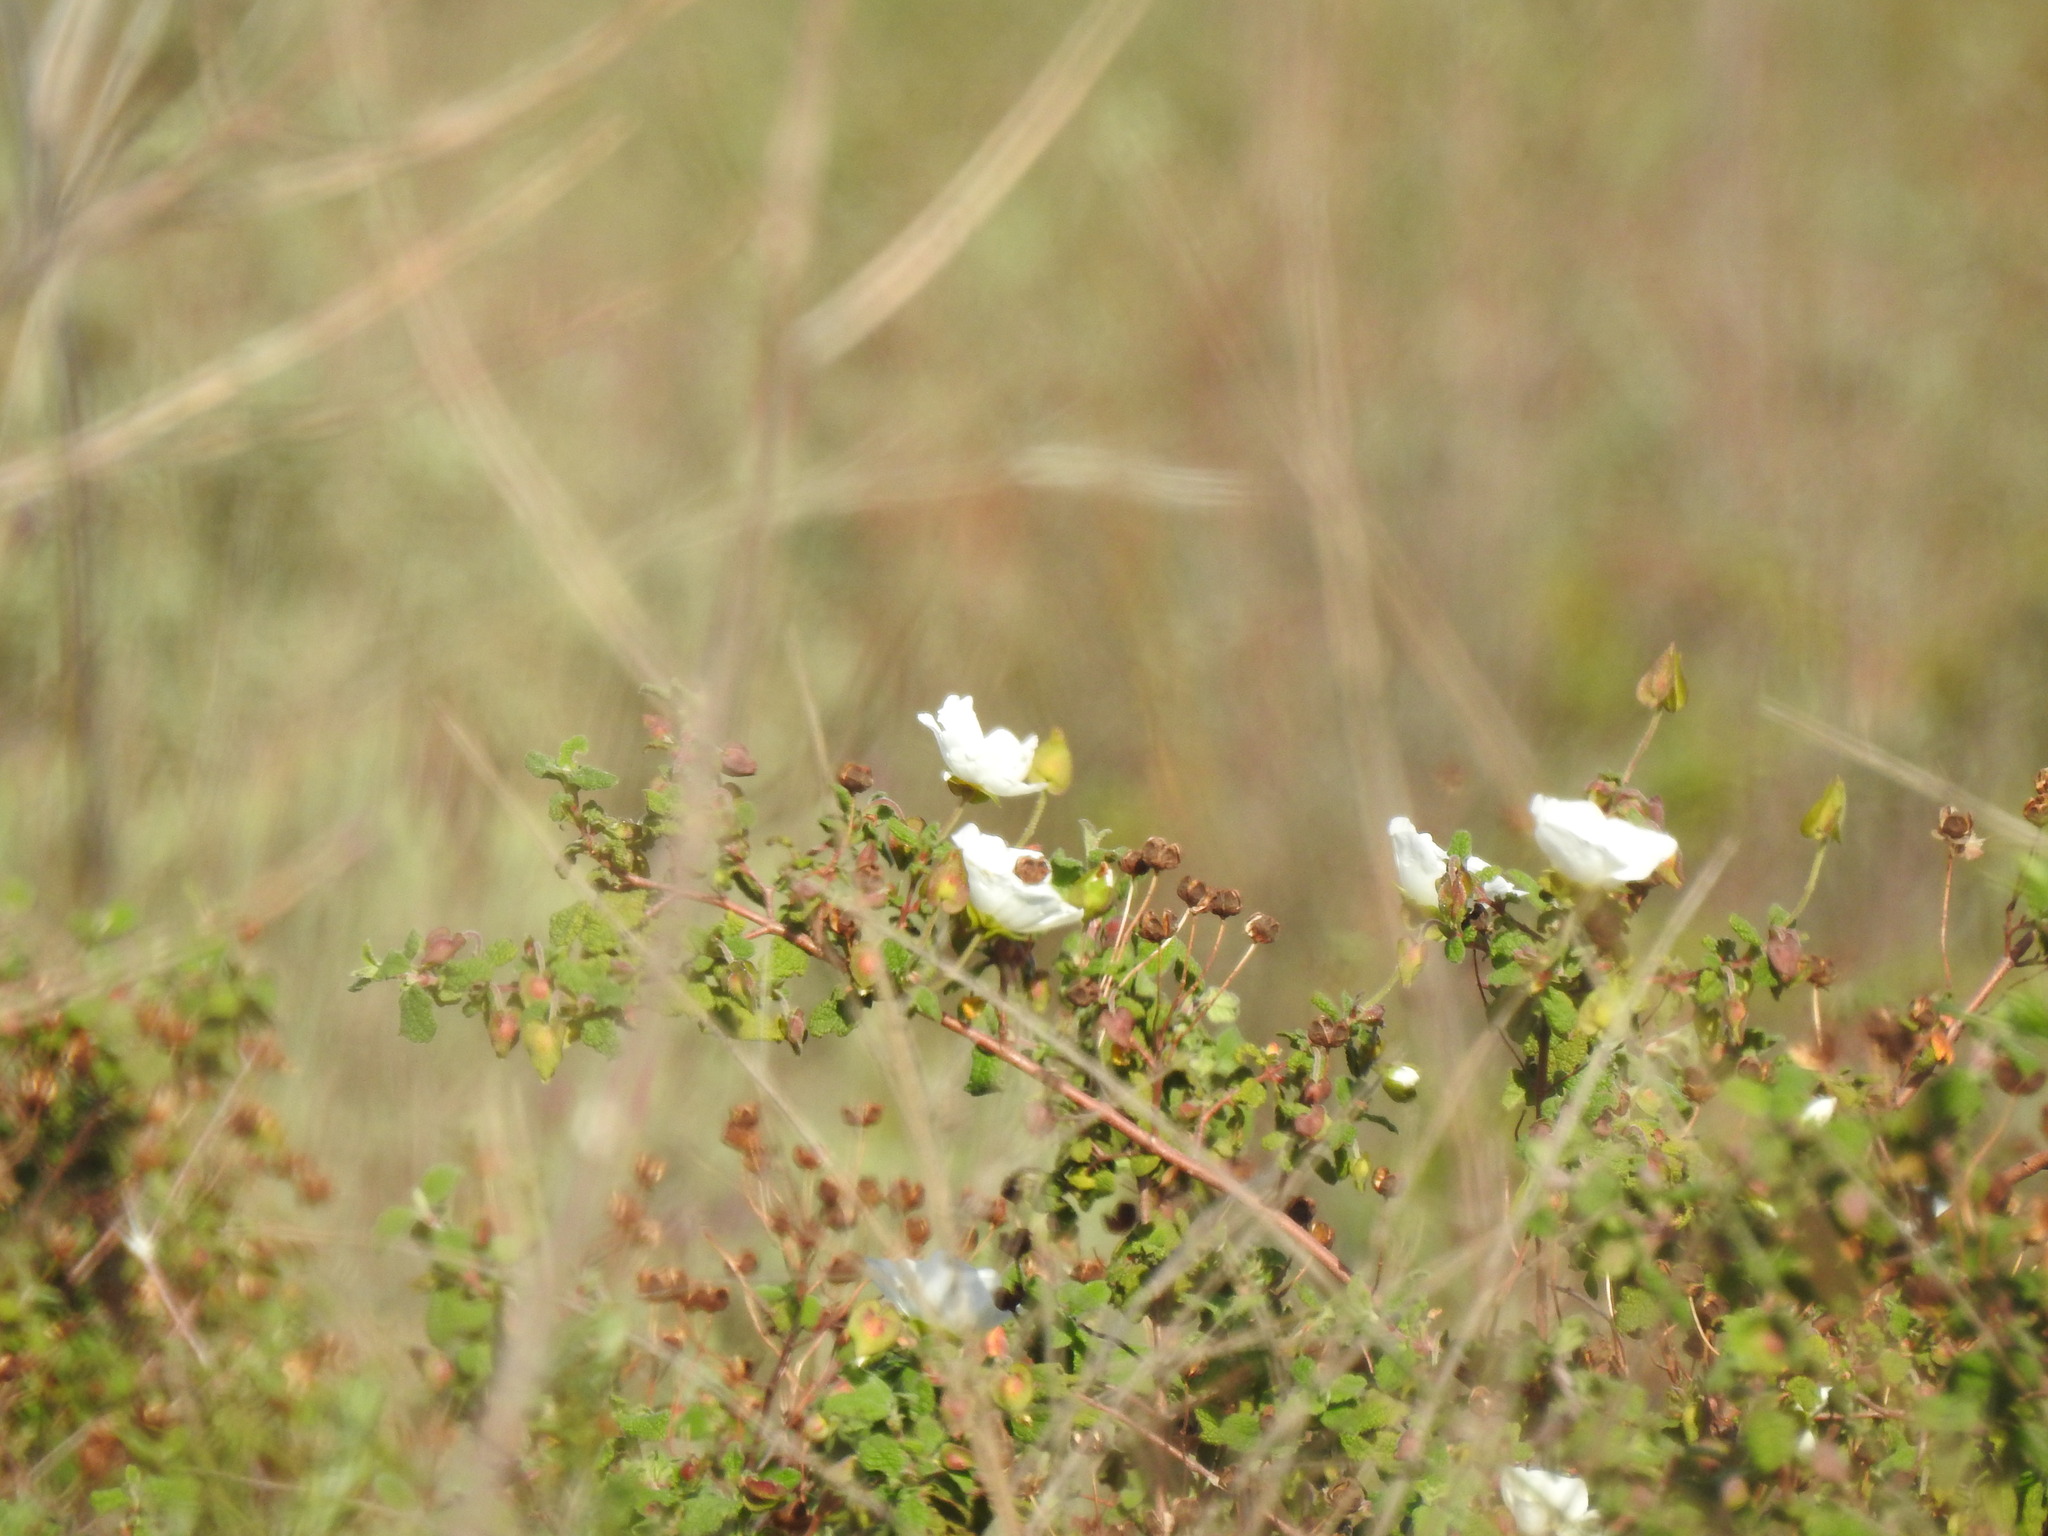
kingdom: Plantae
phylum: Tracheophyta
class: Magnoliopsida
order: Malvales
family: Cistaceae
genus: Cistus
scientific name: Cistus salviifolius
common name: Salvia cistus
